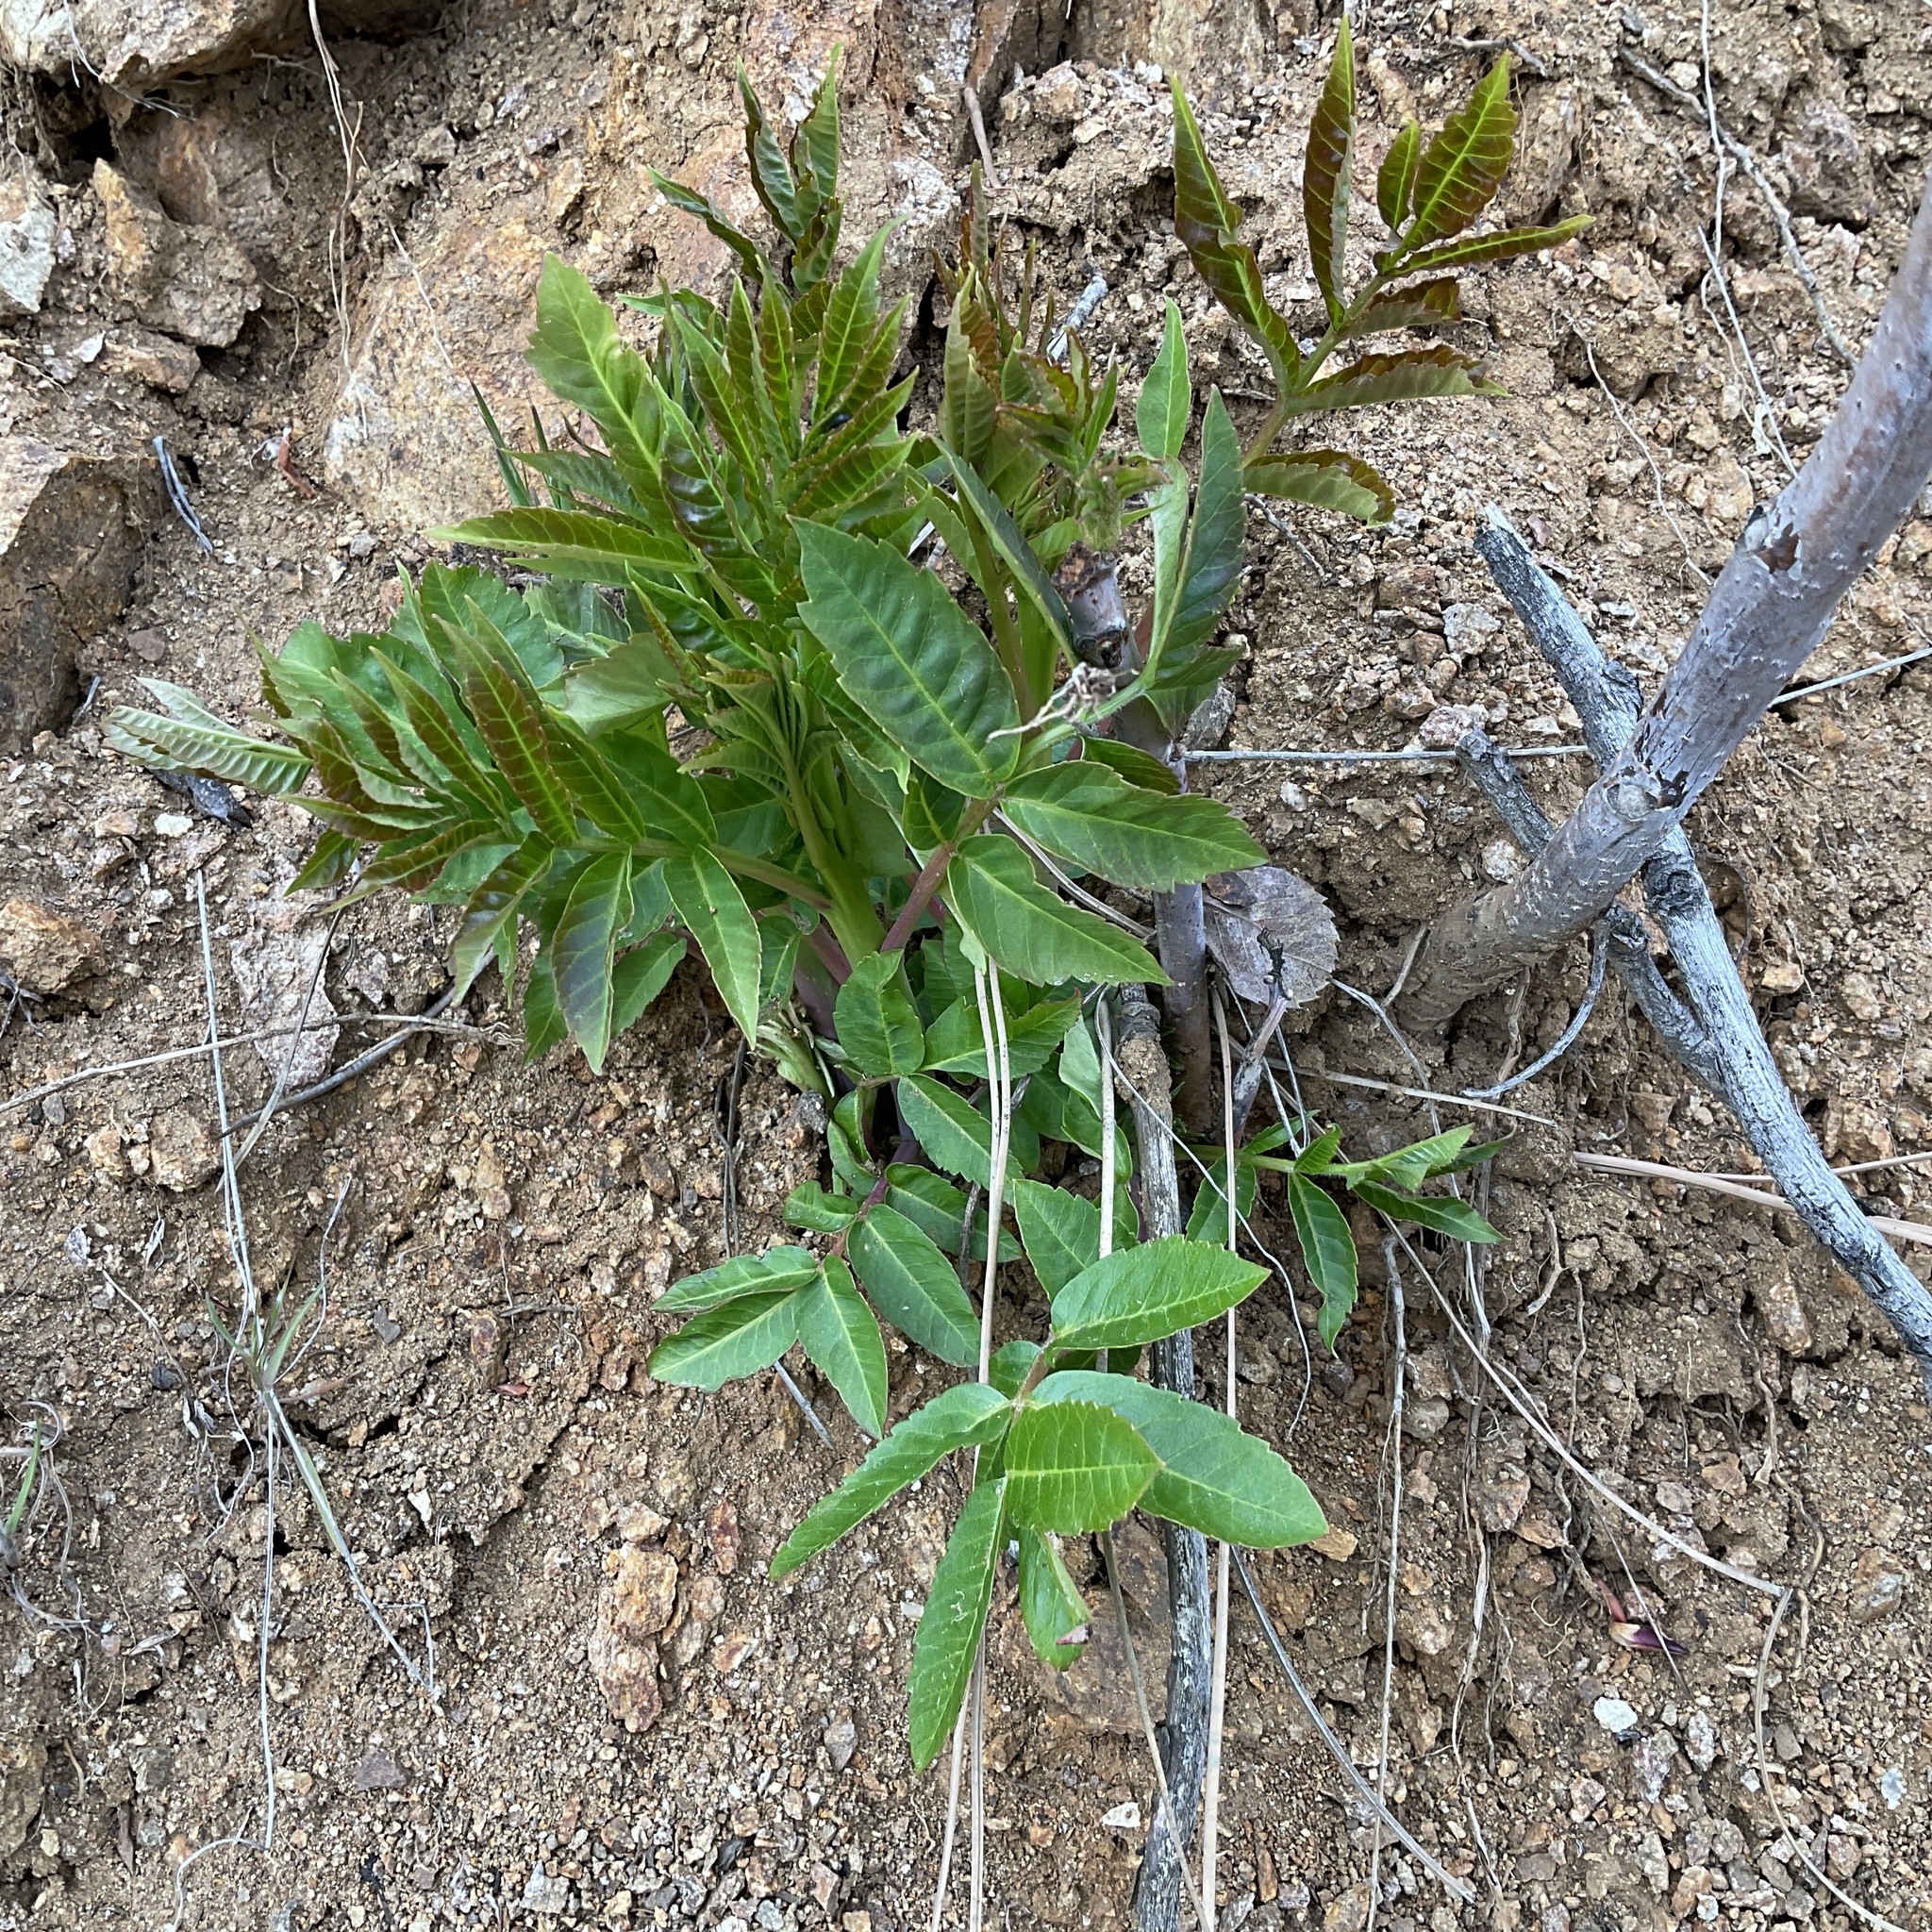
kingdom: Plantae
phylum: Tracheophyta
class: Magnoliopsida
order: Sapindales
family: Anacardiaceae
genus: Rhus
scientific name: Rhus glabra
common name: Scarlet sumac
